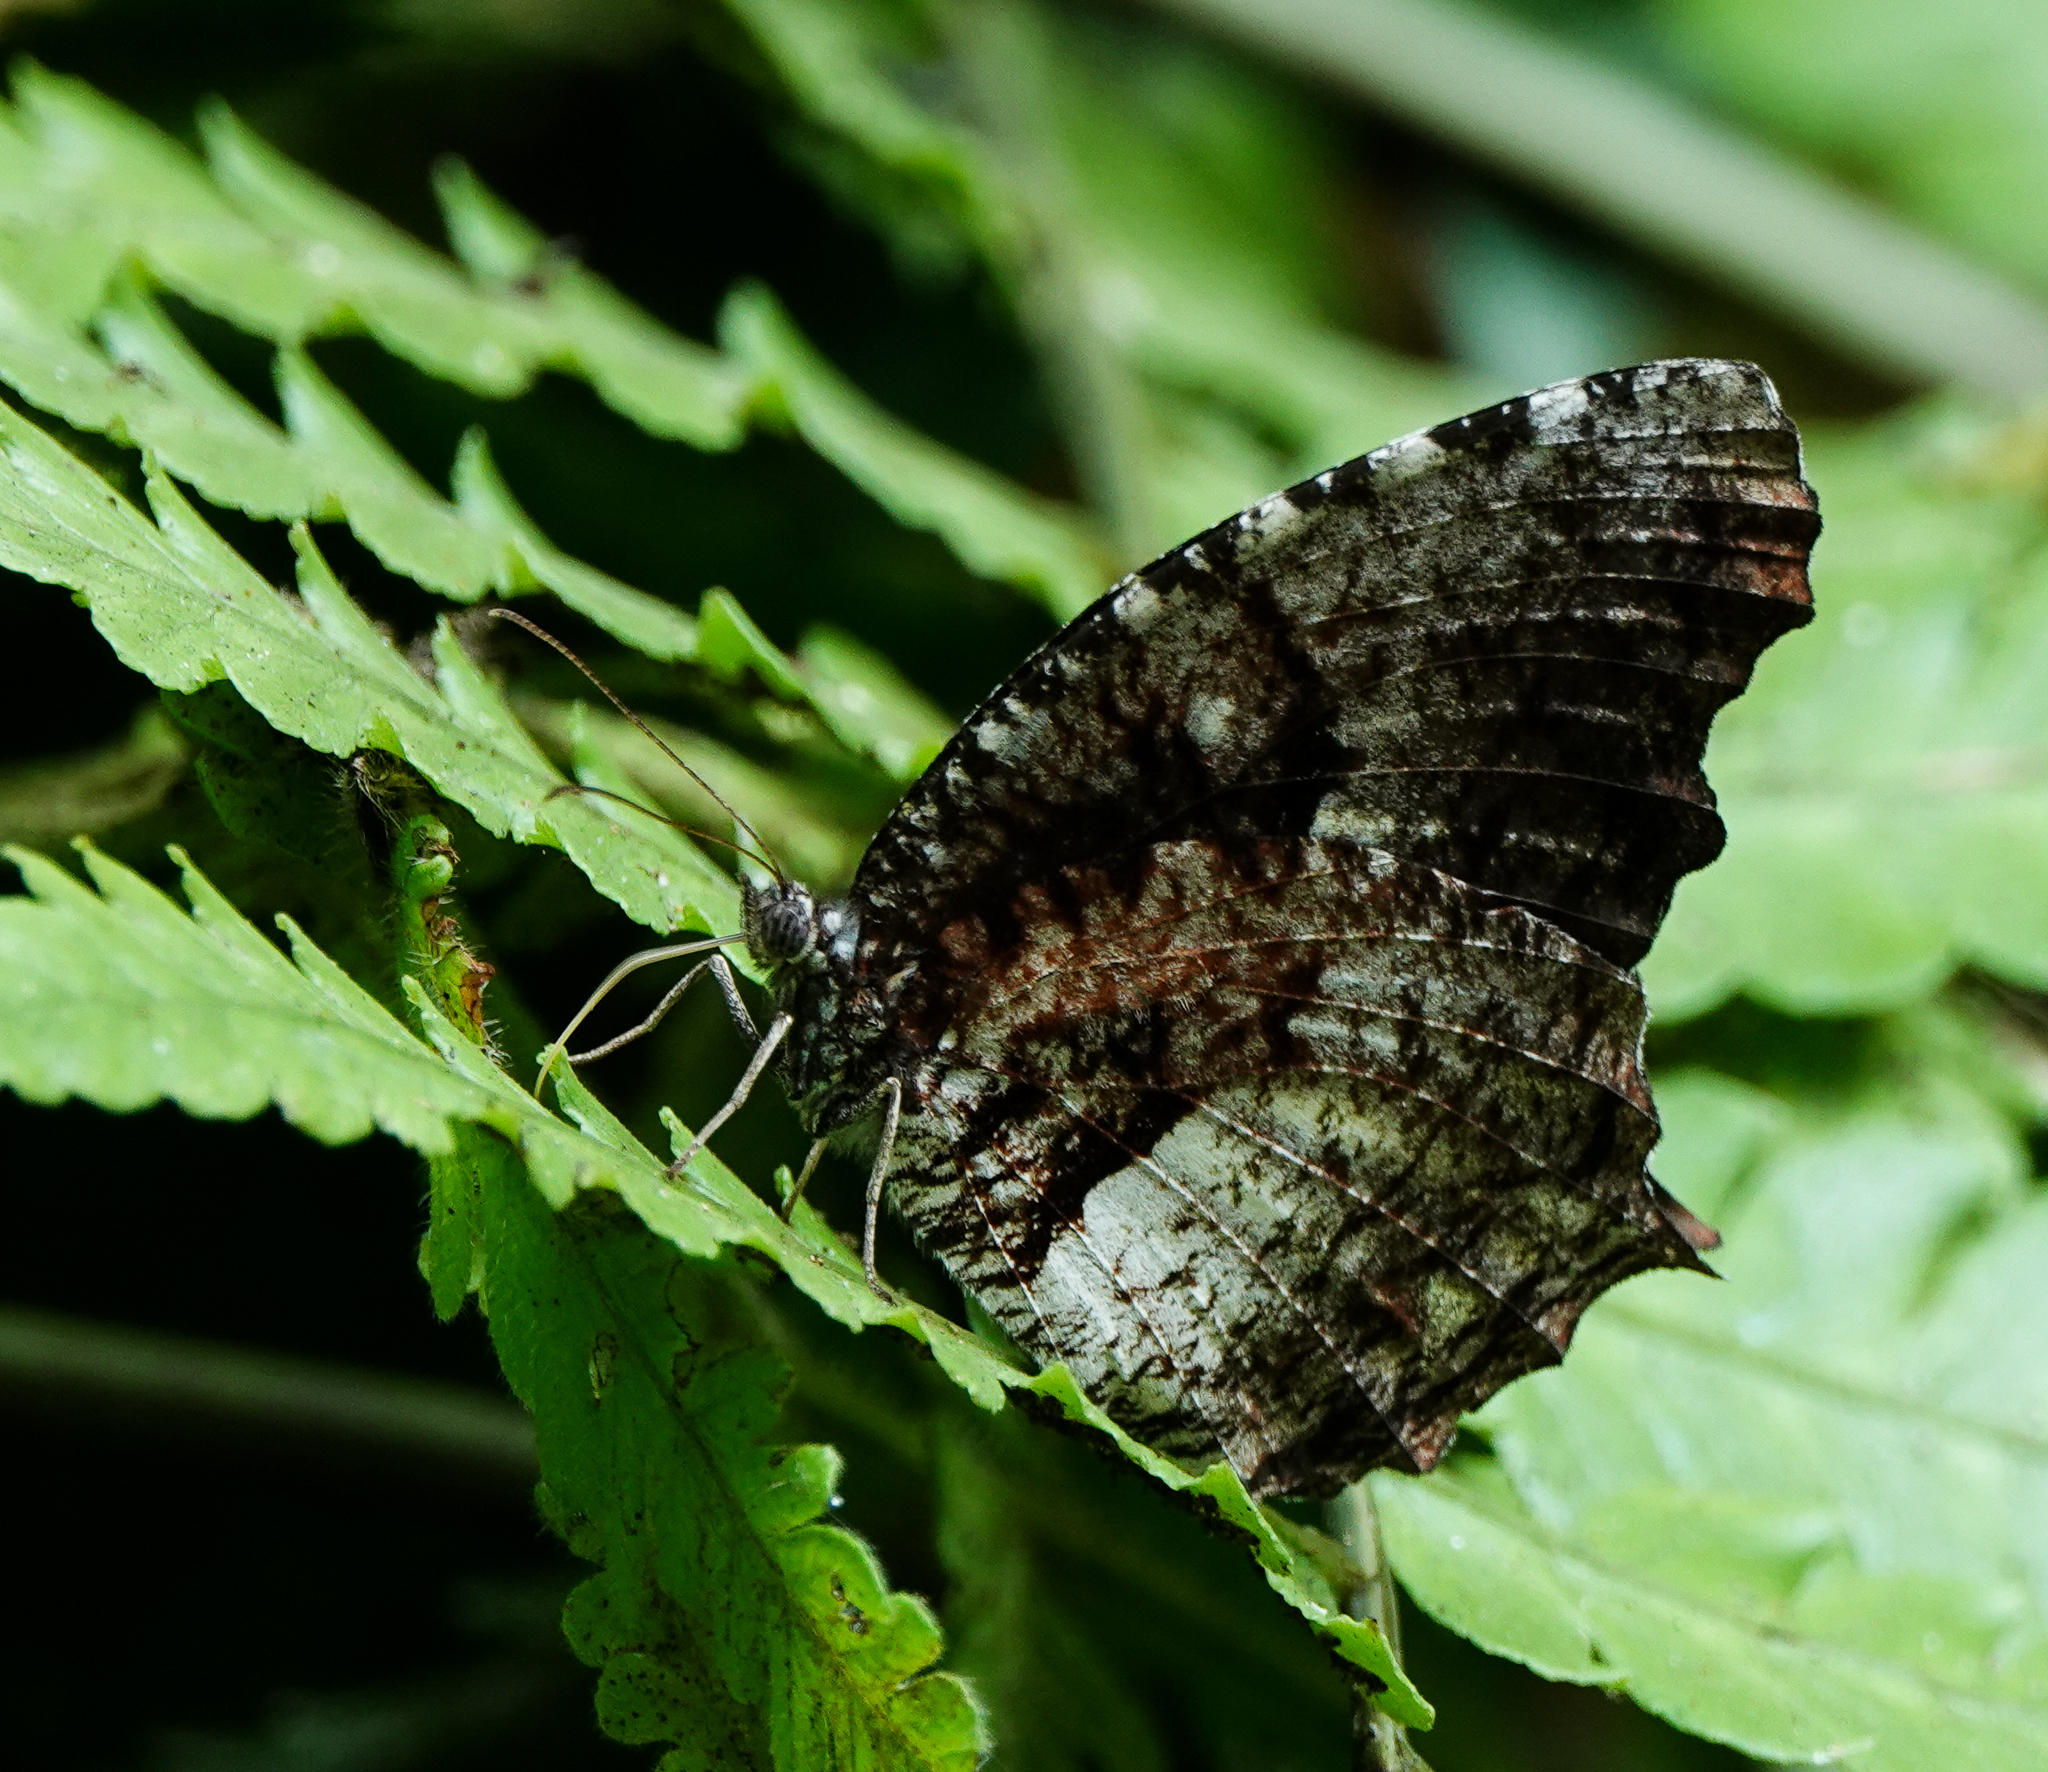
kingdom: Animalia
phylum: Arthropoda
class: Insecta
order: Lepidoptera
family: Nymphalidae
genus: Elymnias
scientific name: Elymnias nesaea
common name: Tiger palmfly
